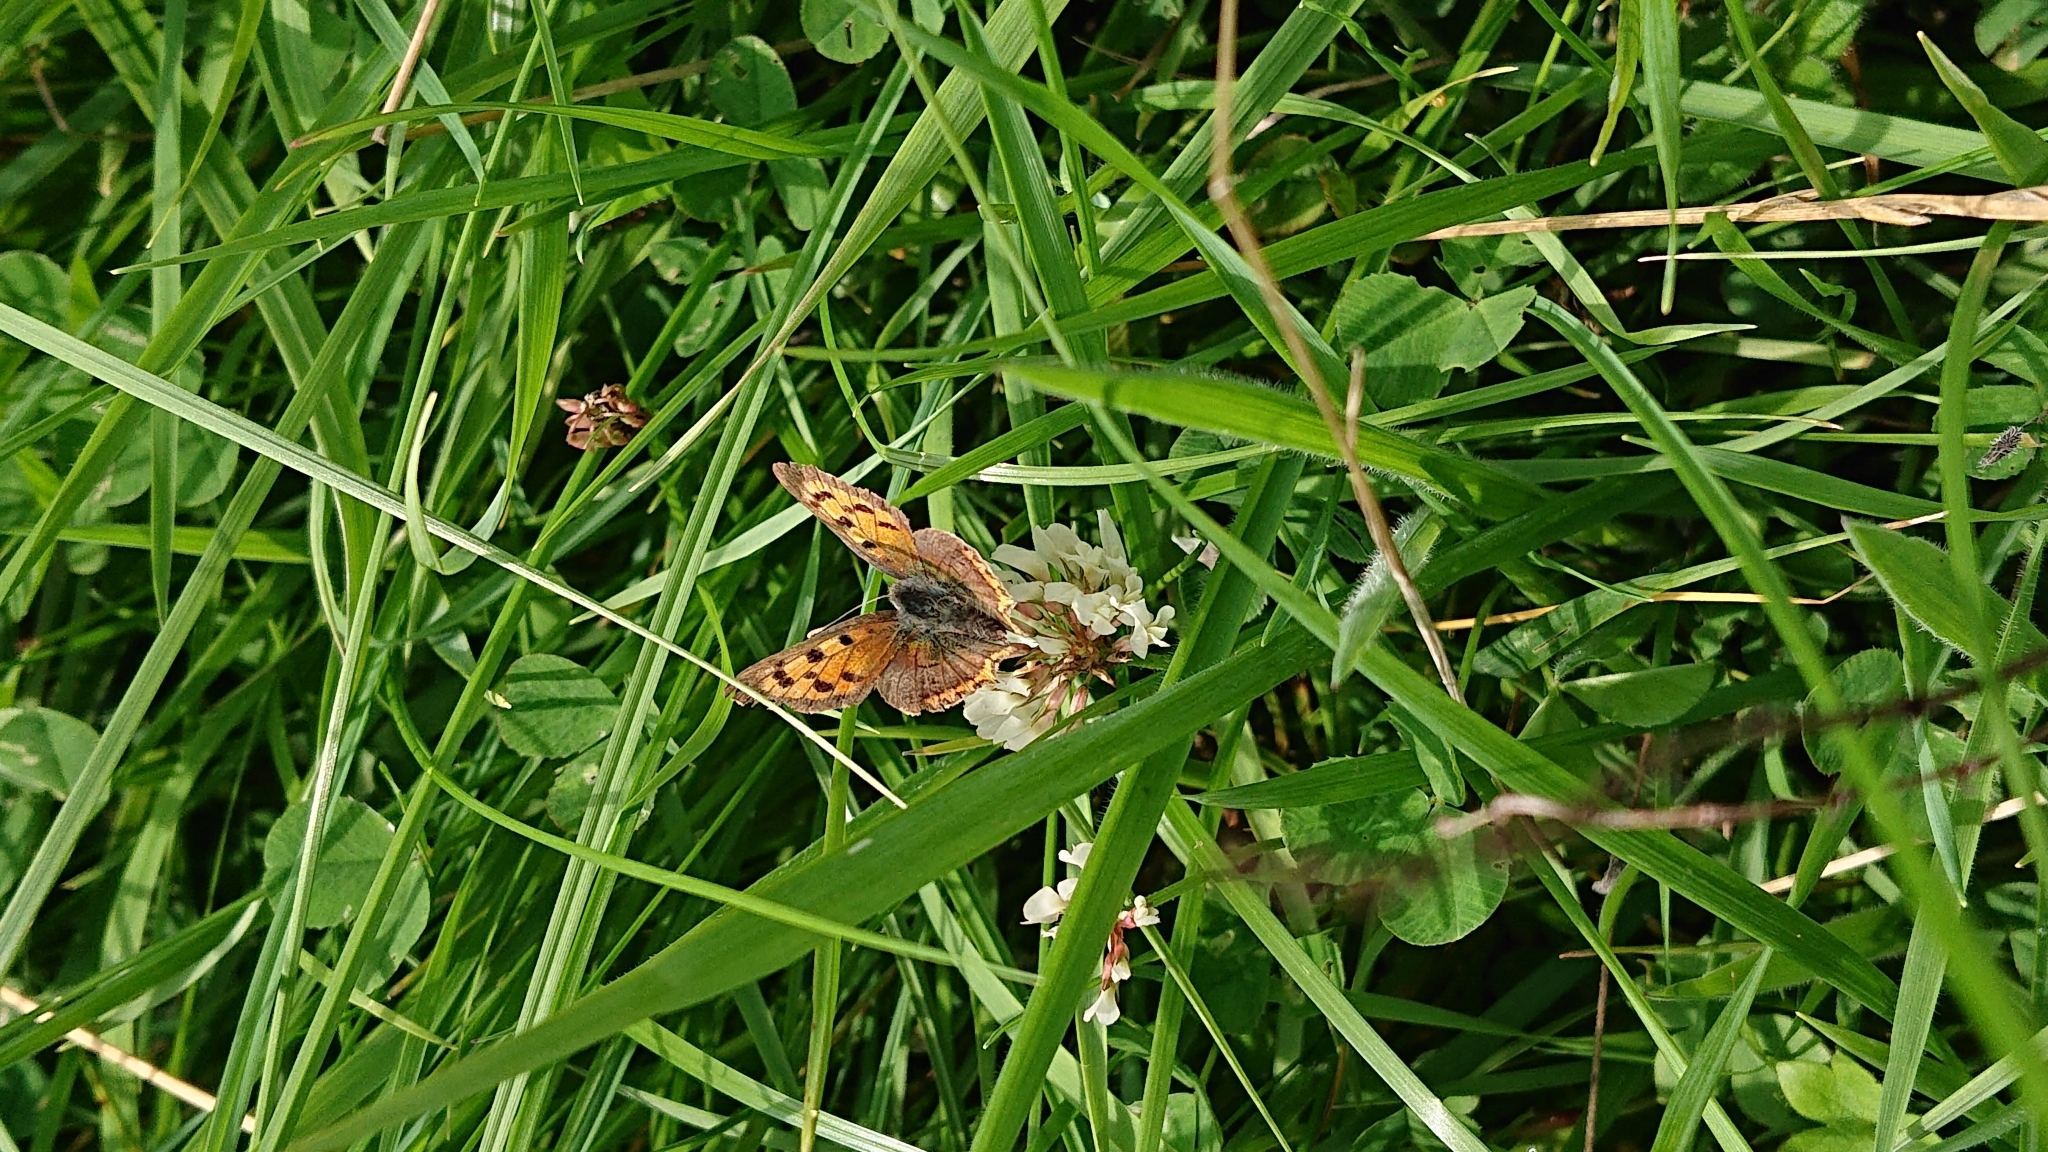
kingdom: Animalia
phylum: Arthropoda
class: Insecta
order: Lepidoptera
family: Lycaenidae
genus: Lycaena
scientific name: Lycaena phlaeas
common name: Small copper
